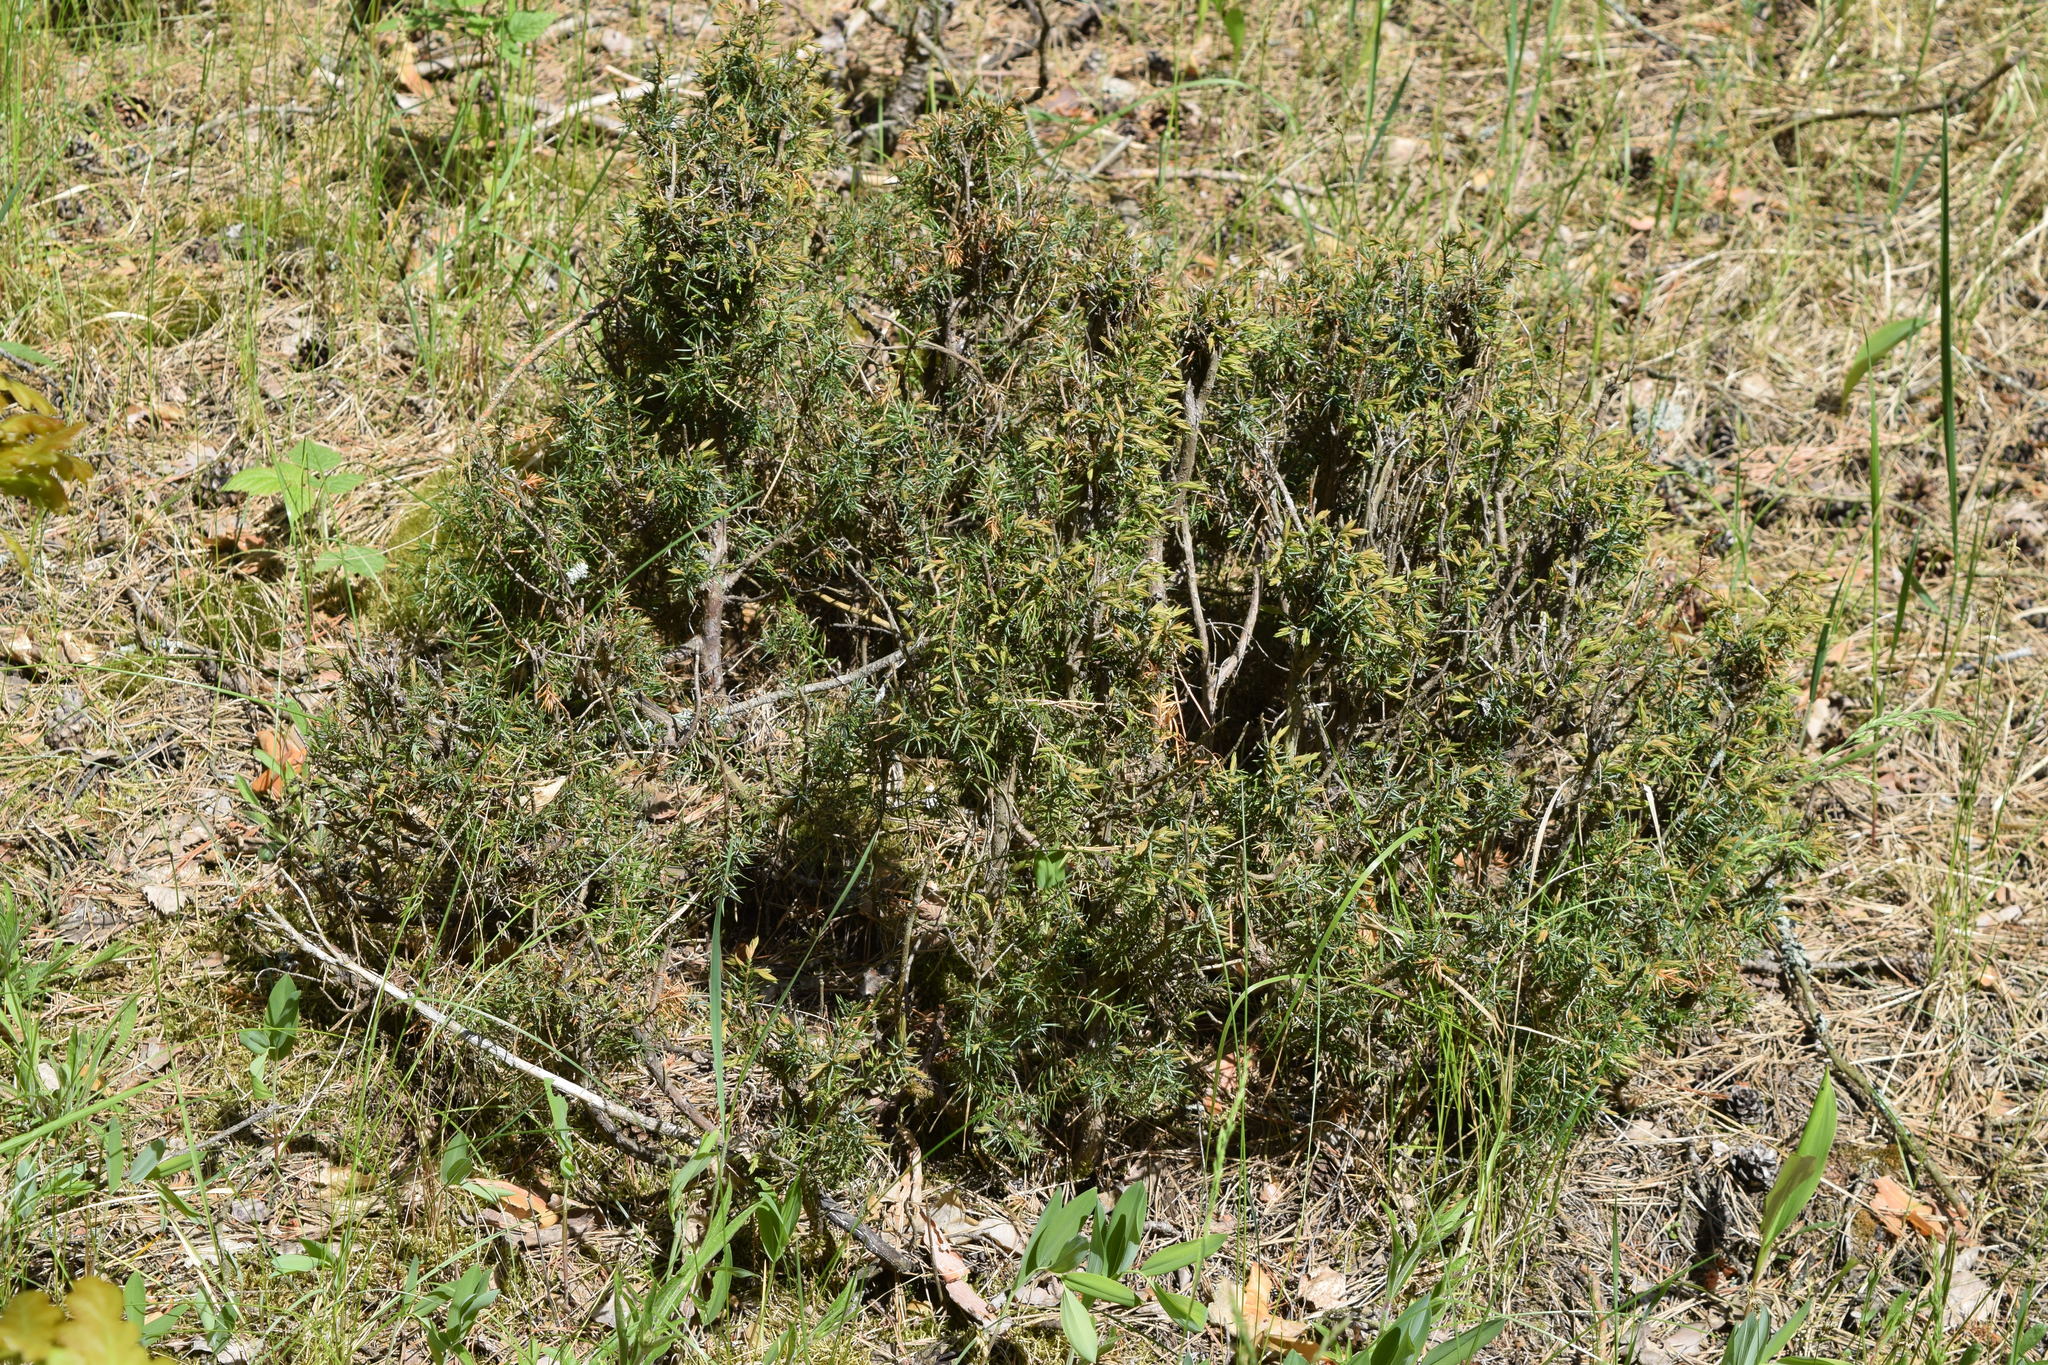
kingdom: Plantae
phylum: Tracheophyta
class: Pinopsida
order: Pinales
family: Cupressaceae
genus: Juniperus
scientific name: Juniperus communis
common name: Common juniper
